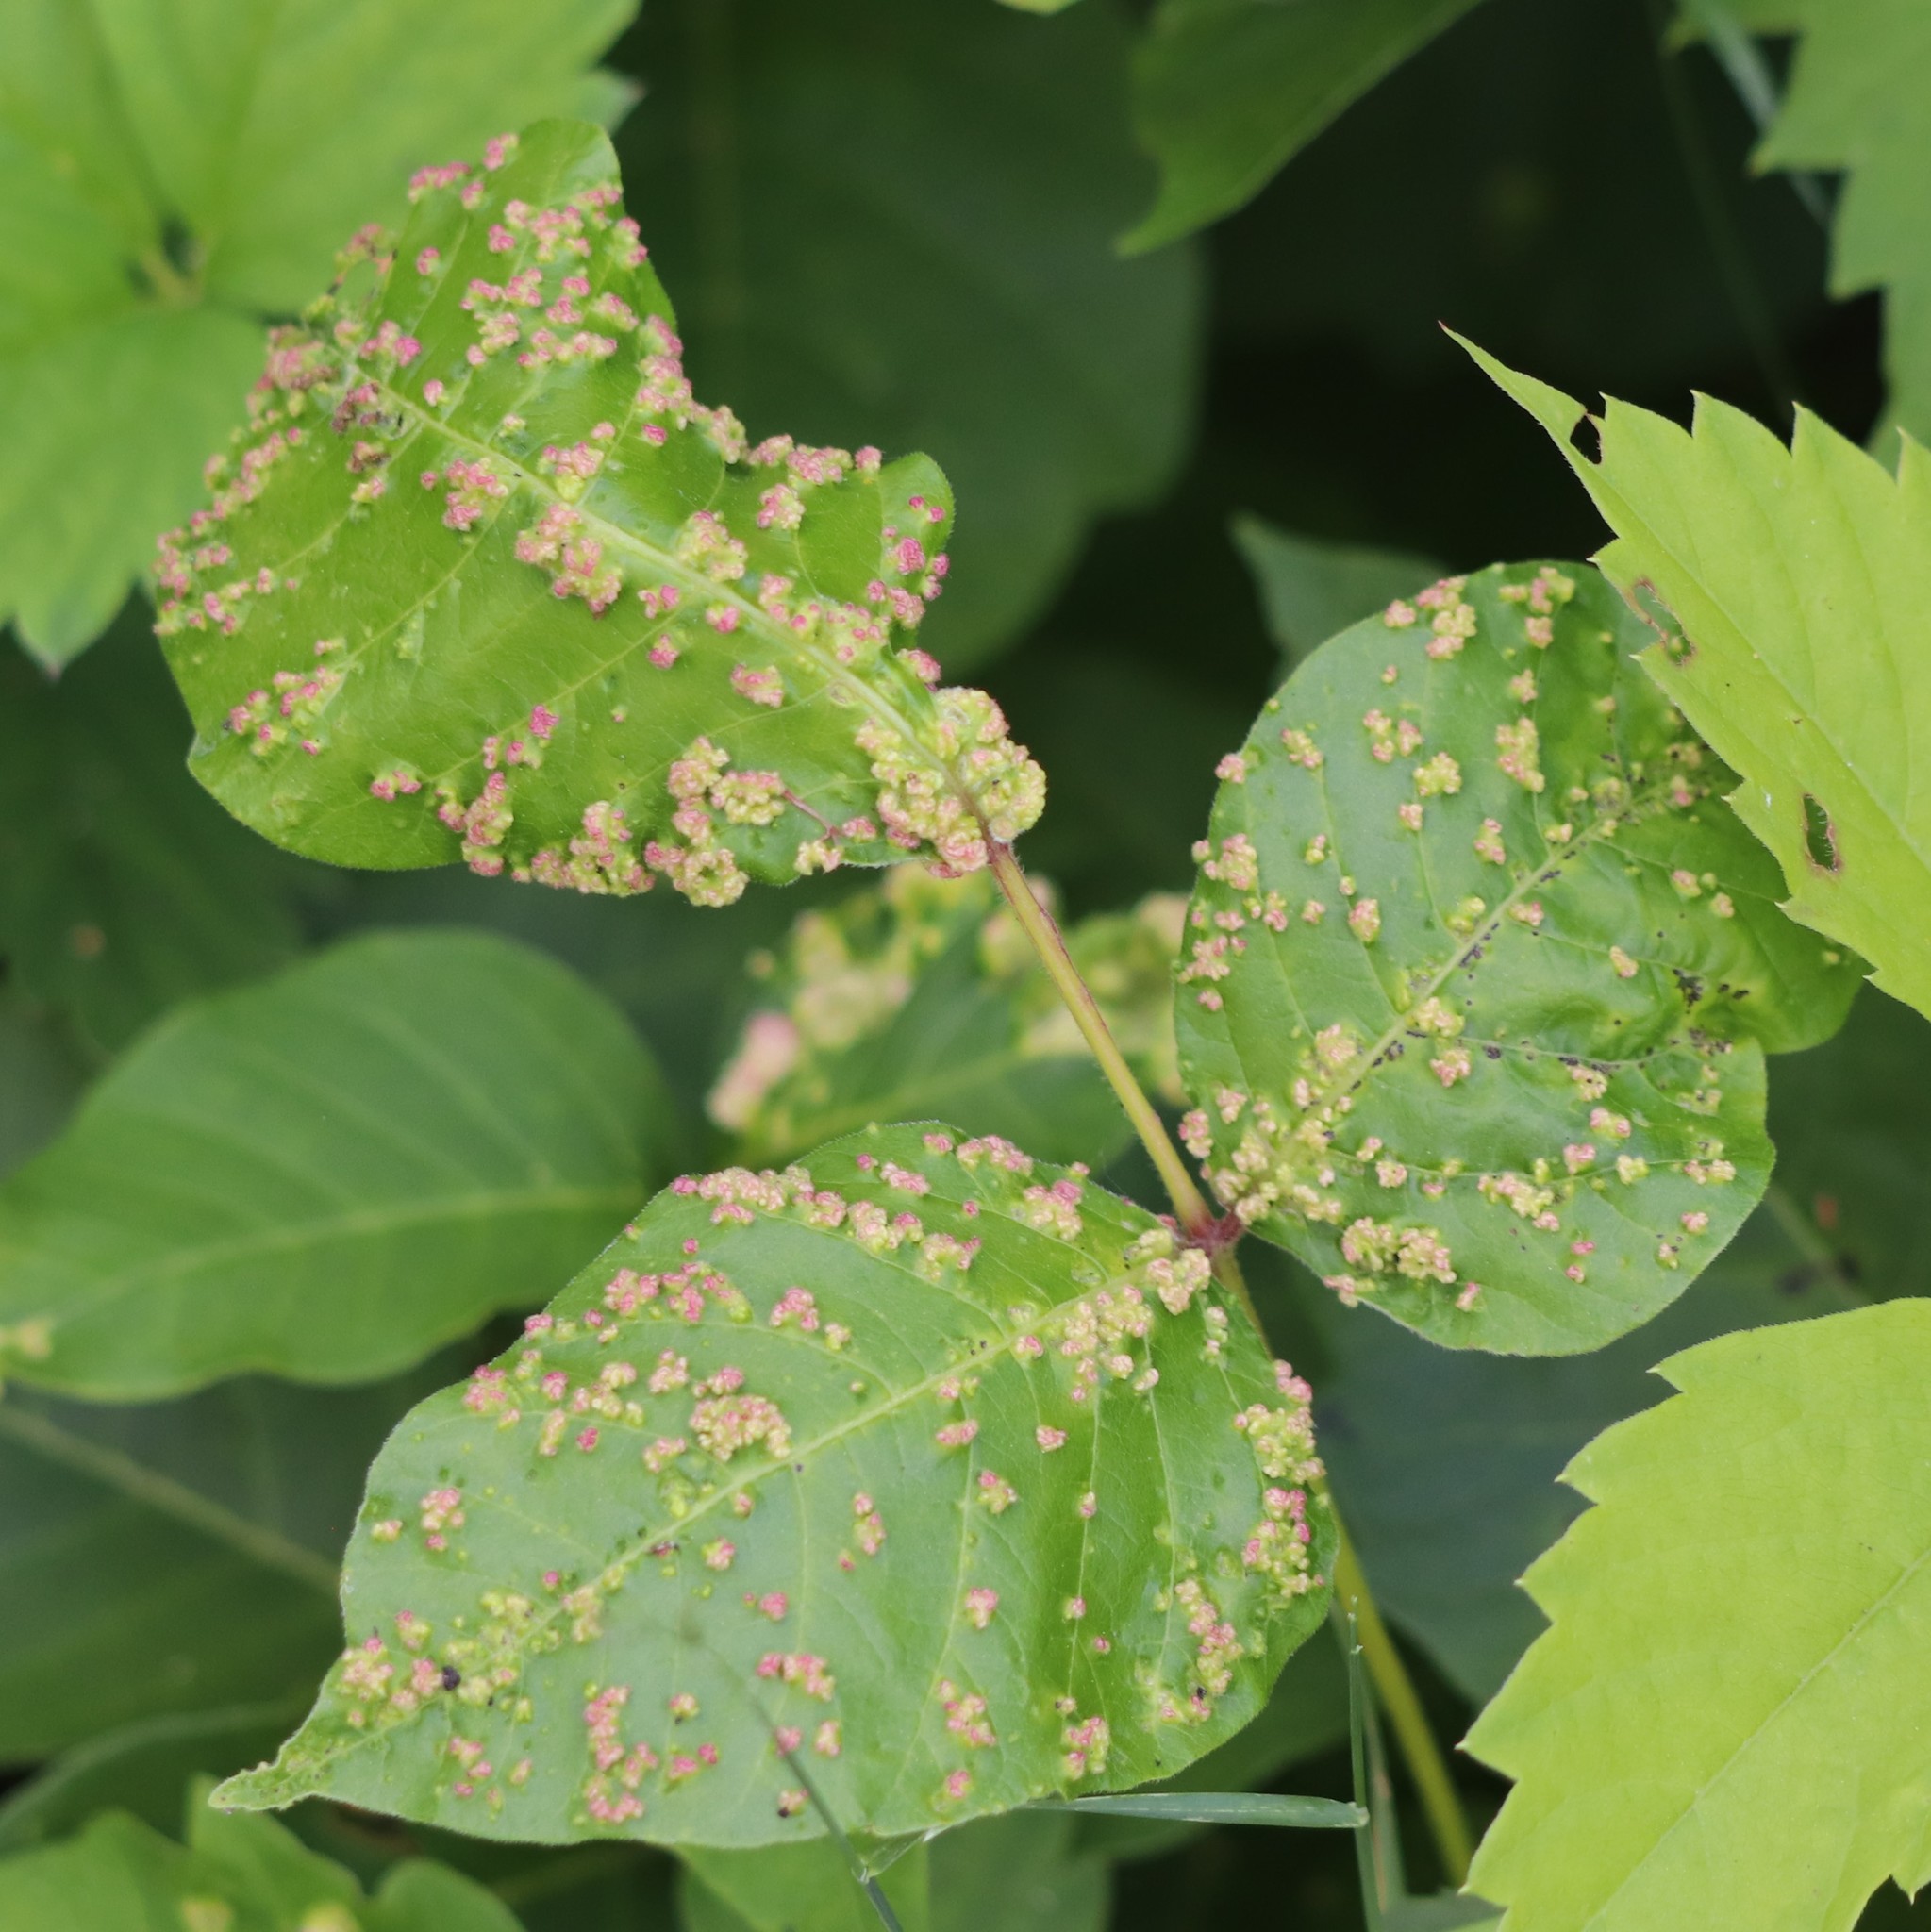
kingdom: Animalia
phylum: Arthropoda
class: Arachnida
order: Trombidiformes
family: Eriophyidae
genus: Aculops
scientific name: Aculops
